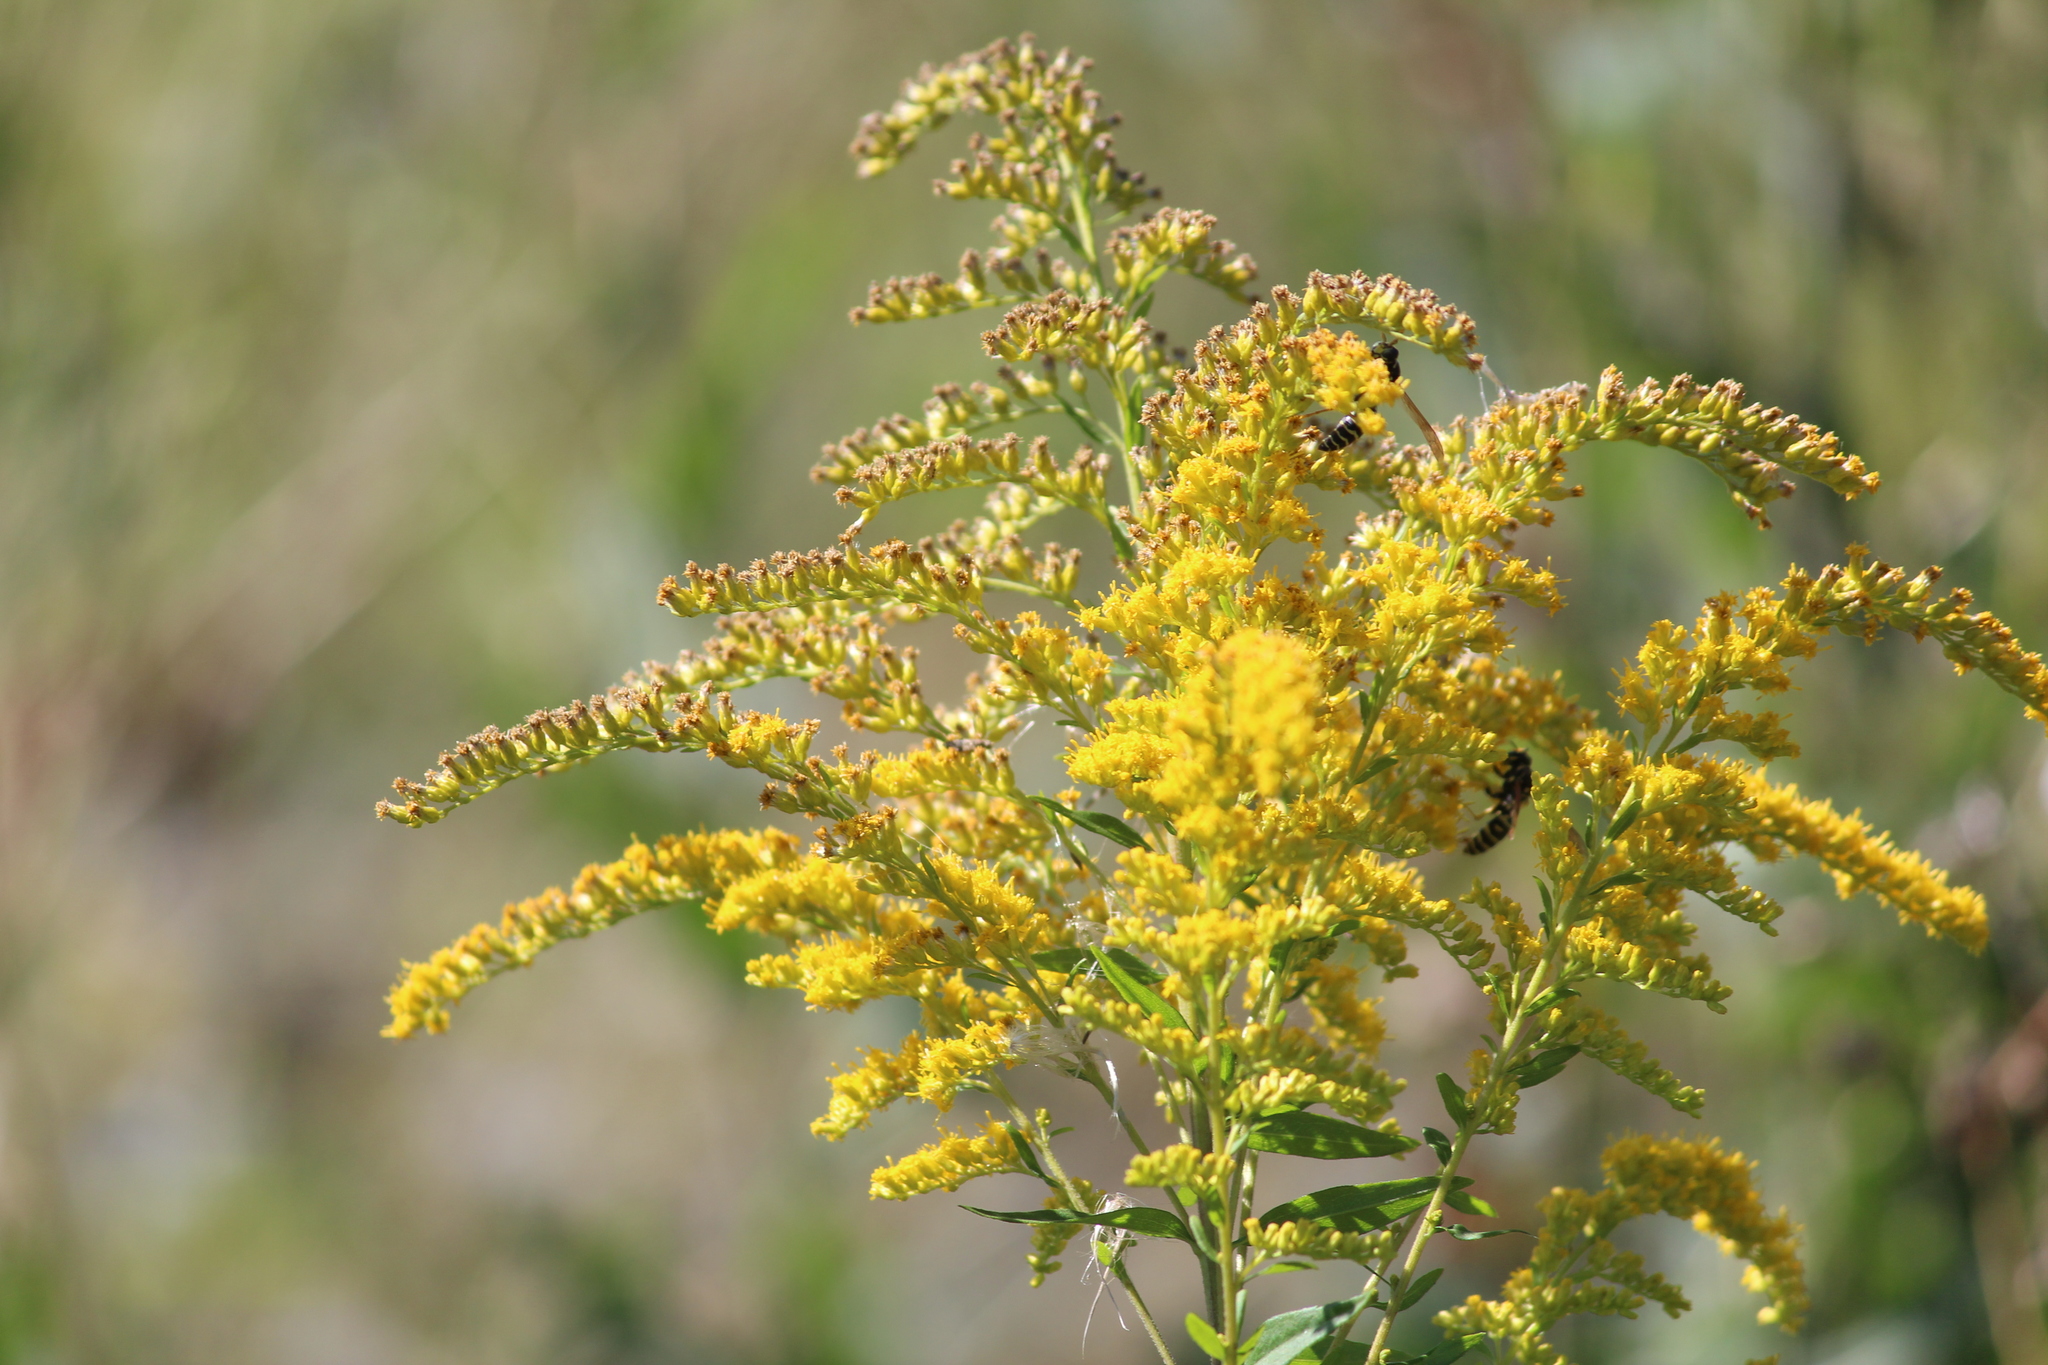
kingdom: Plantae
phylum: Tracheophyta
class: Magnoliopsida
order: Asterales
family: Asteraceae
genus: Solidago
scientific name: Solidago canadensis
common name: Canada goldenrod
